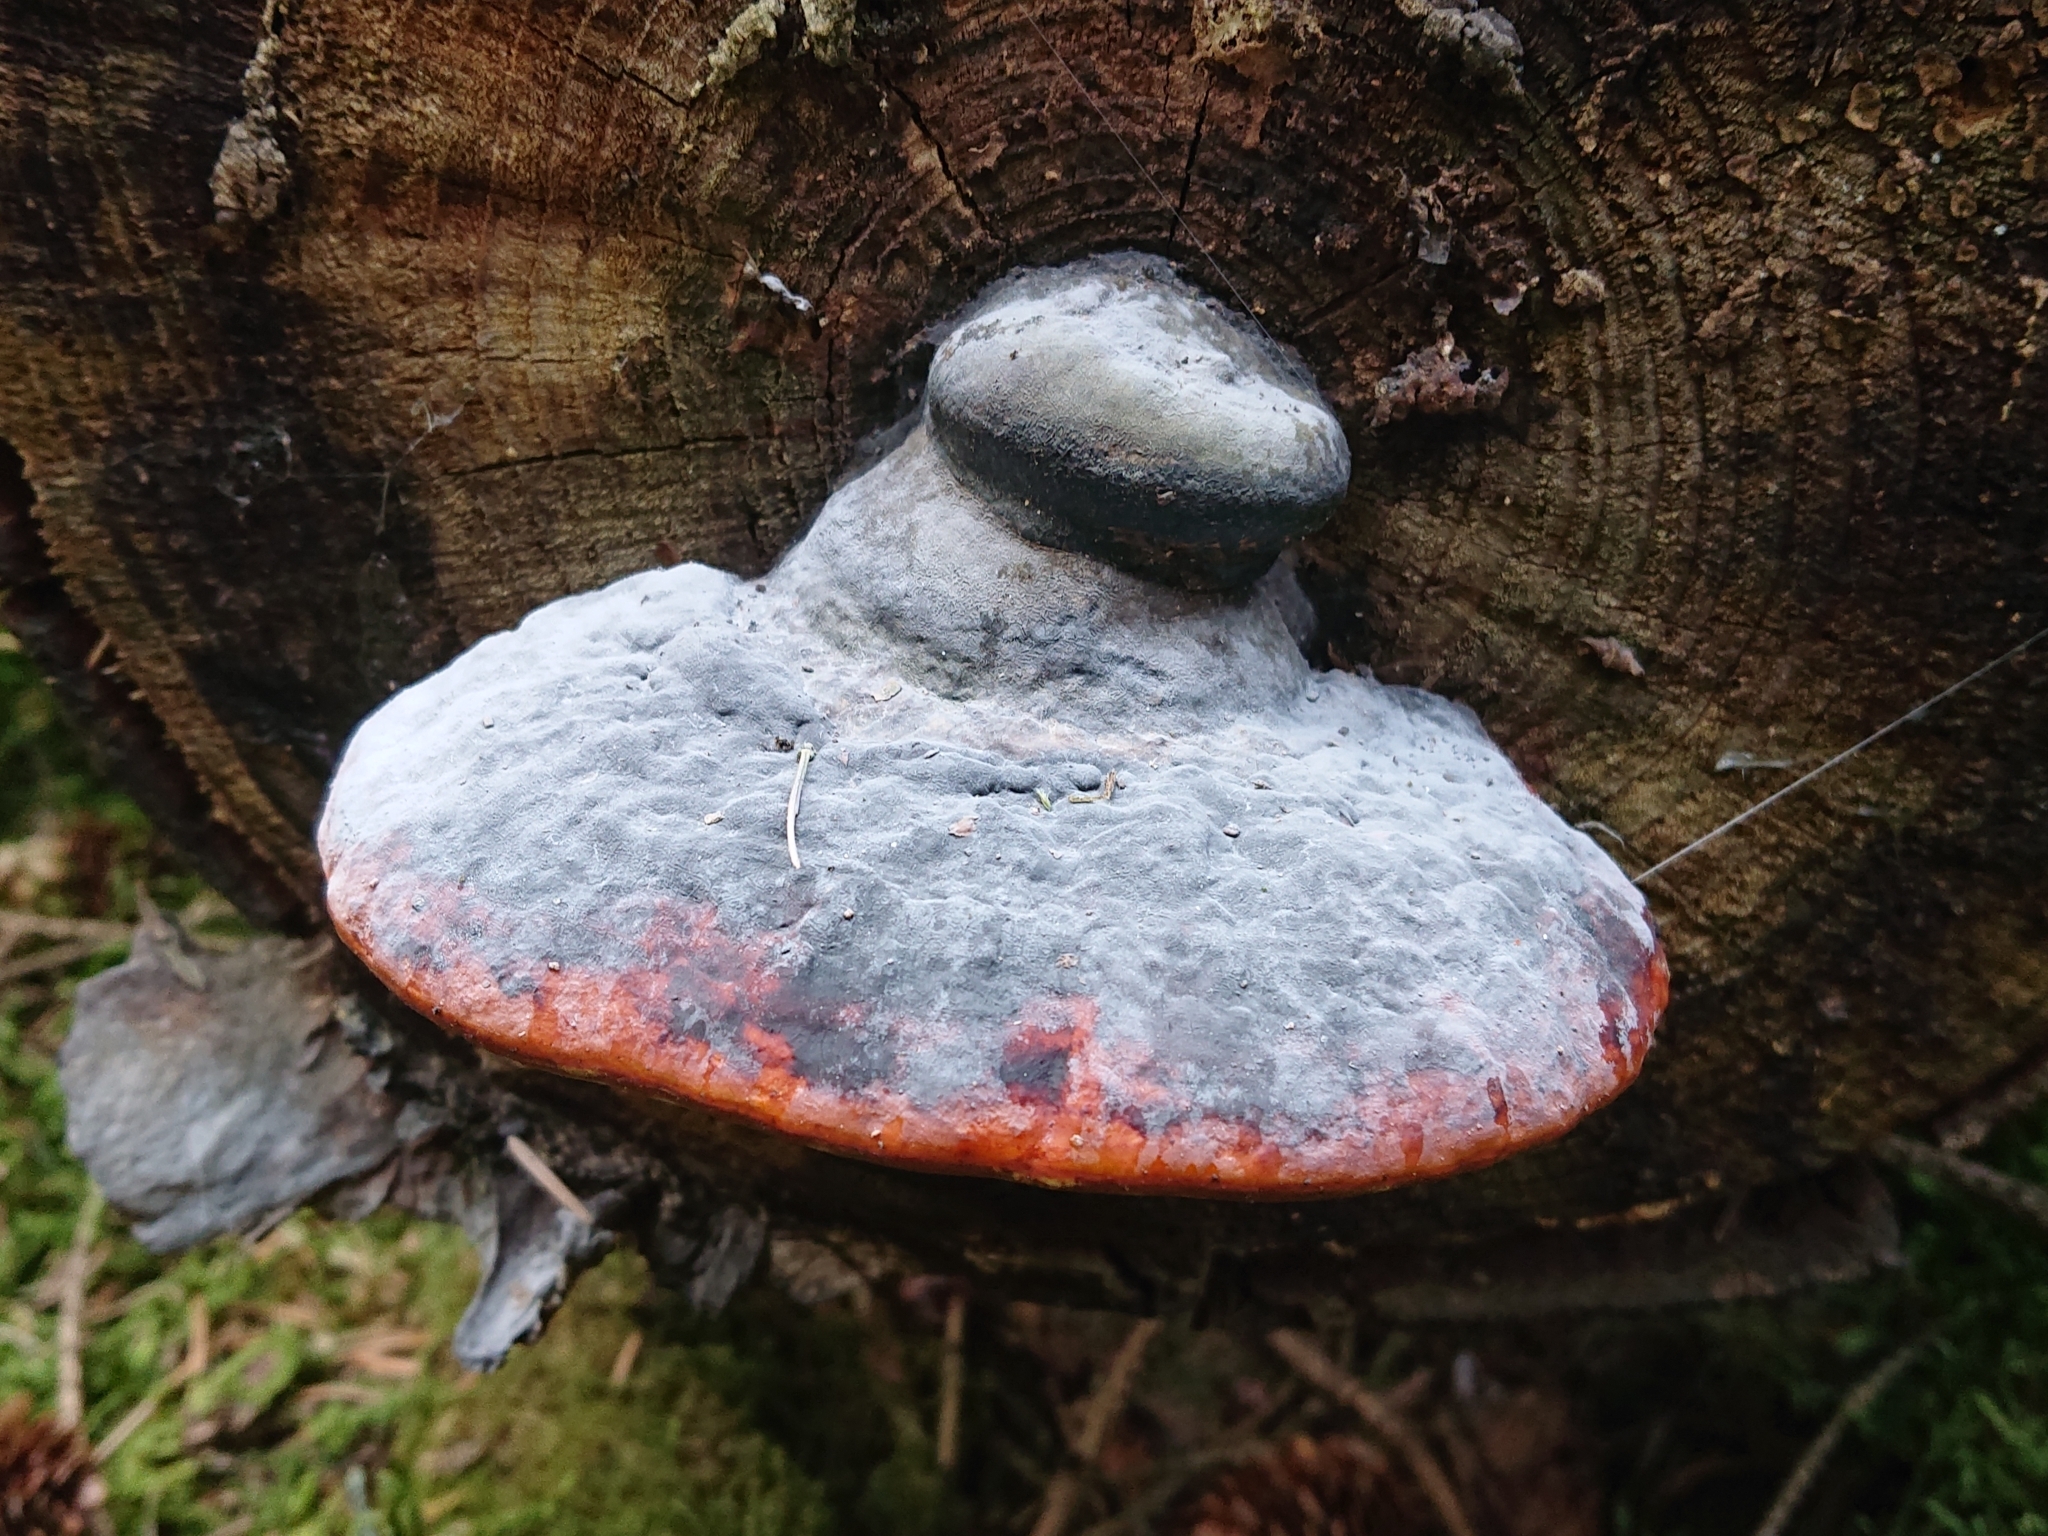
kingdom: Fungi
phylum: Basidiomycota
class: Agaricomycetes
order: Polyporales
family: Fomitopsidaceae
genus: Fomitopsis
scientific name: Fomitopsis pinicola
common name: Red-belted bracket
